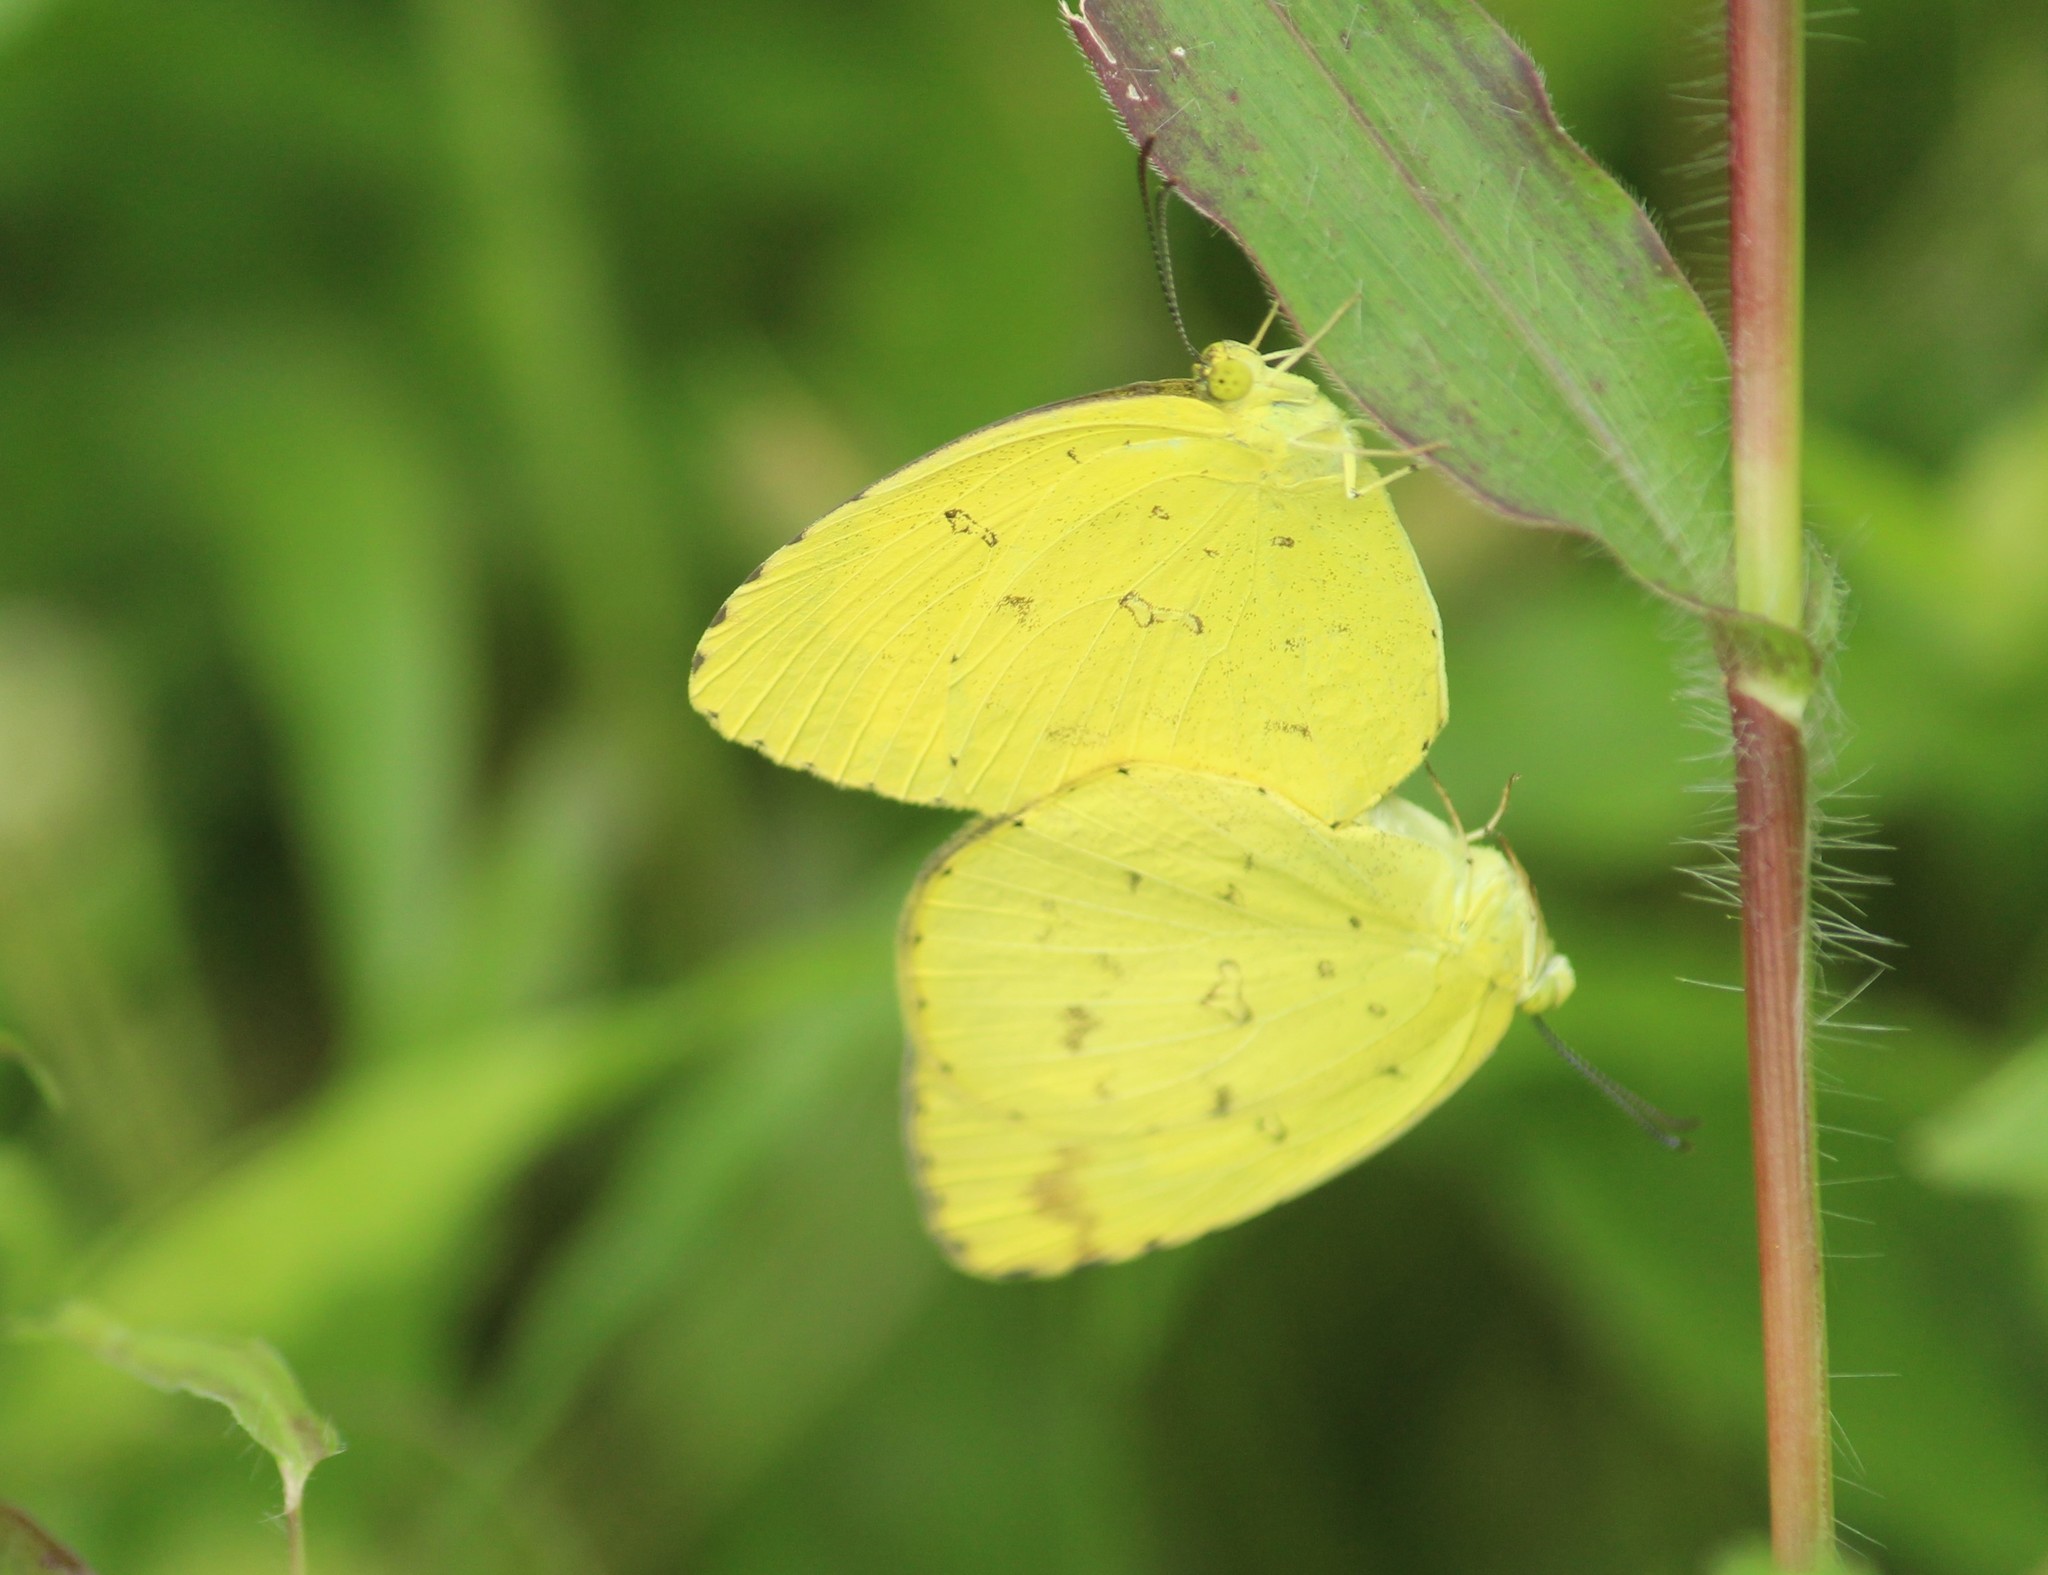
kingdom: Animalia
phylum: Arthropoda
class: Insecta
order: Lepidoptera
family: Pieridae
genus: Eurema
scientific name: Eurema hecabe
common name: Pale grass yellow
